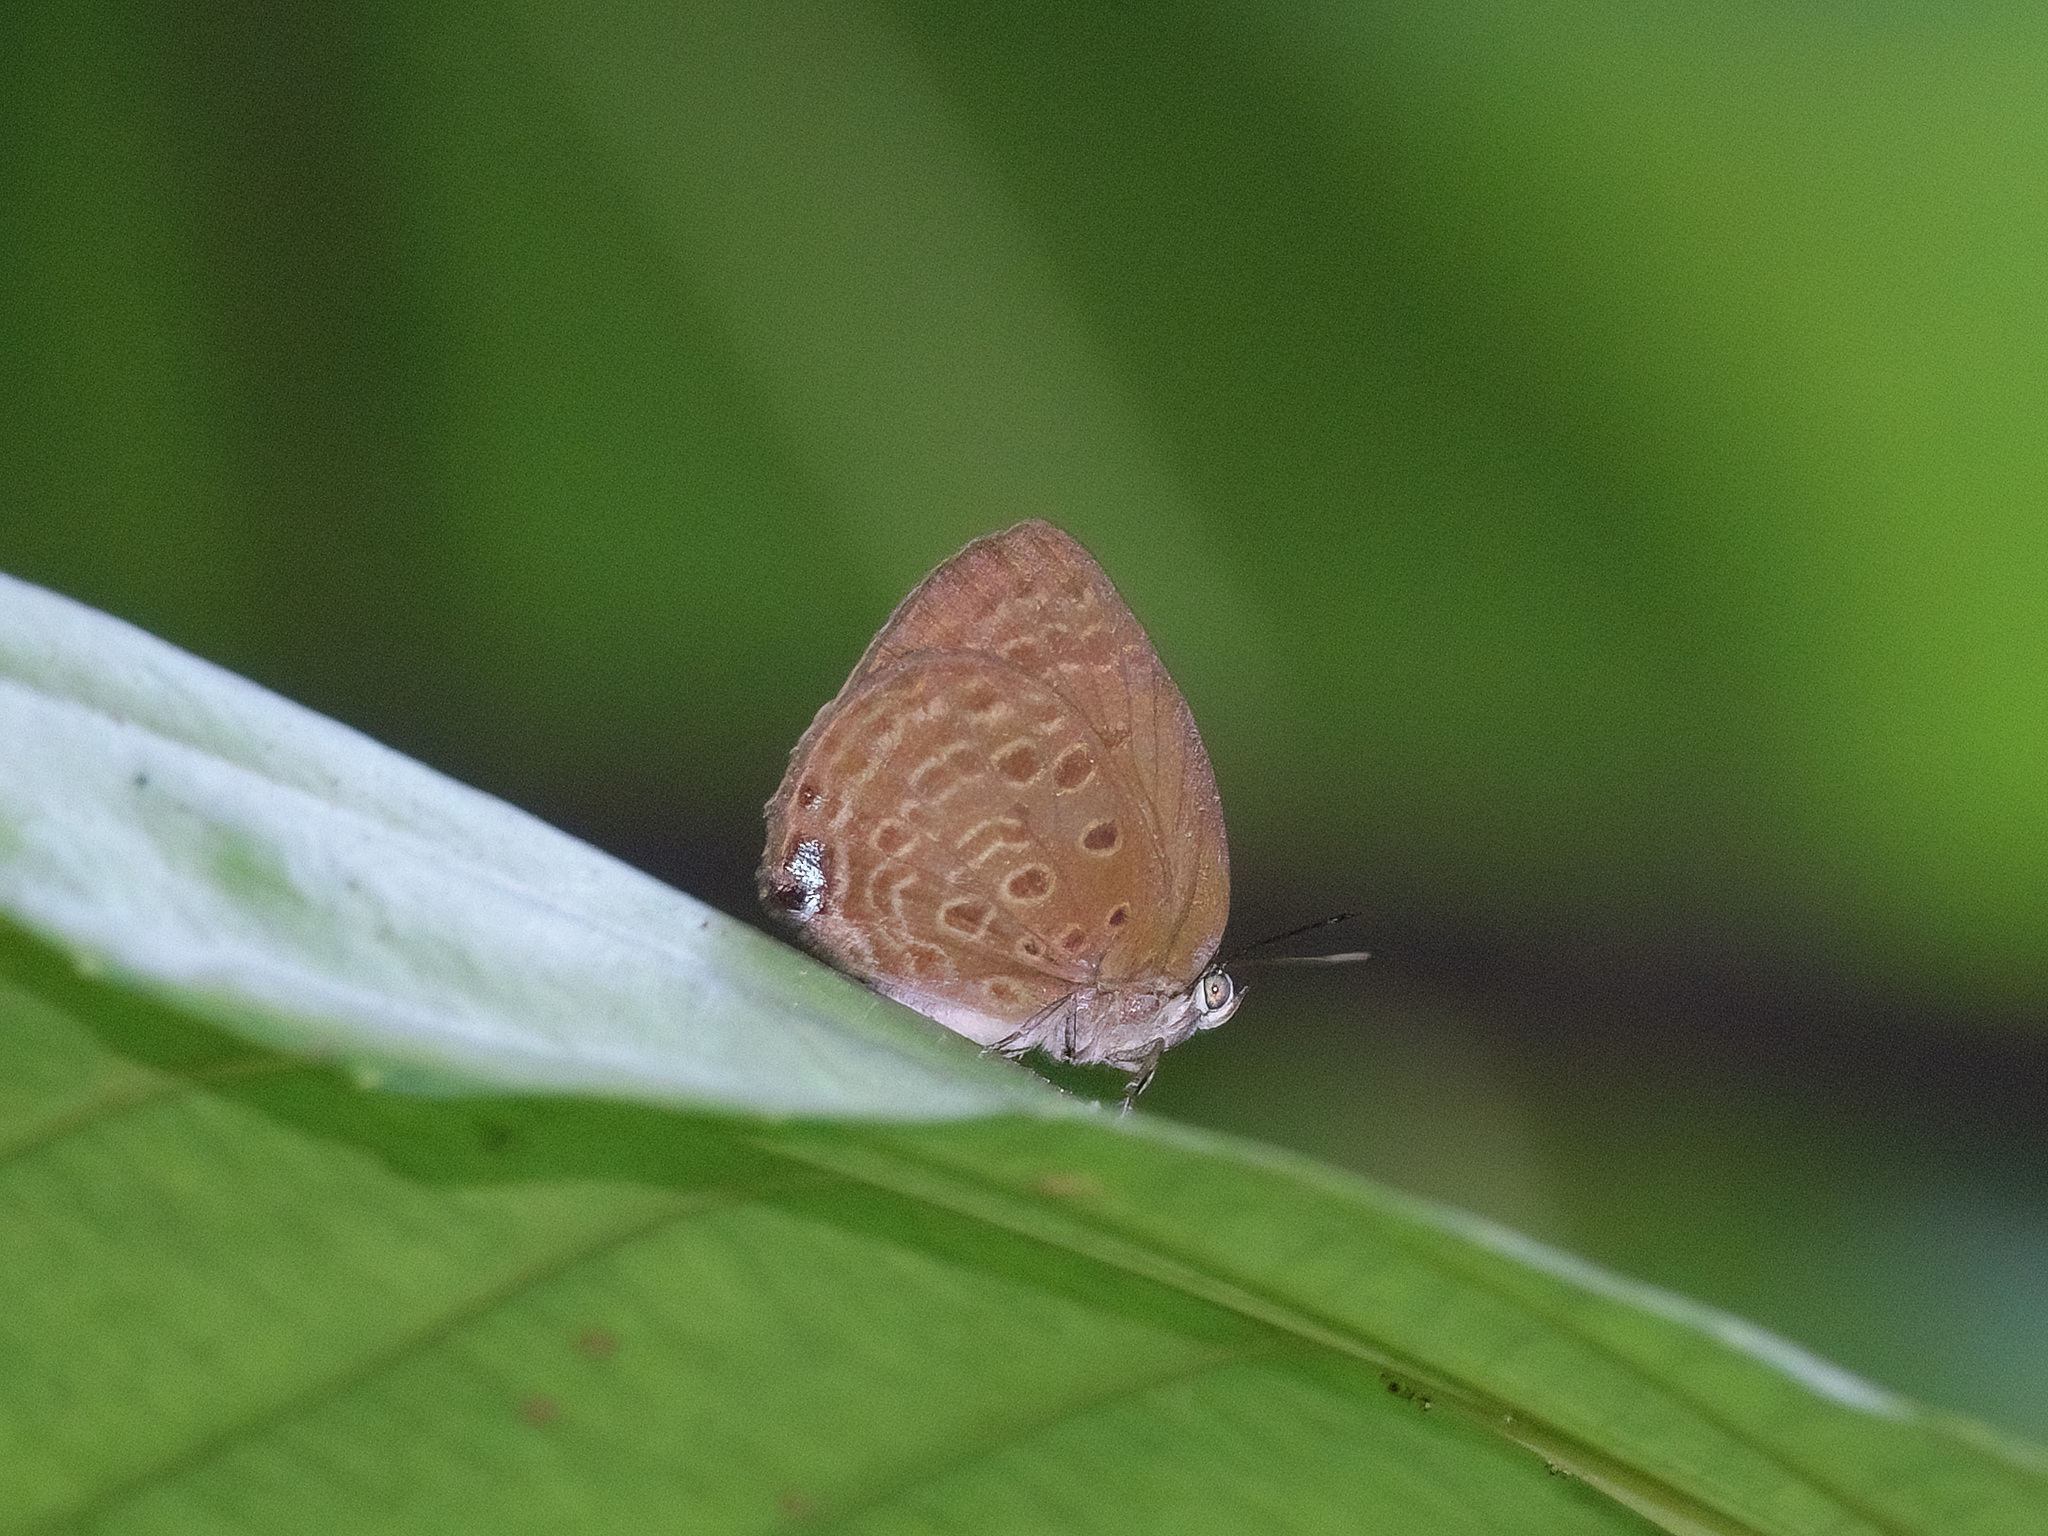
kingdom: Animalia
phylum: Arthropoda
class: Insecta
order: Lepidoptera
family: Lycaenidae
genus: Arhopala
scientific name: Arhopala major
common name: Major yellow oakblue
